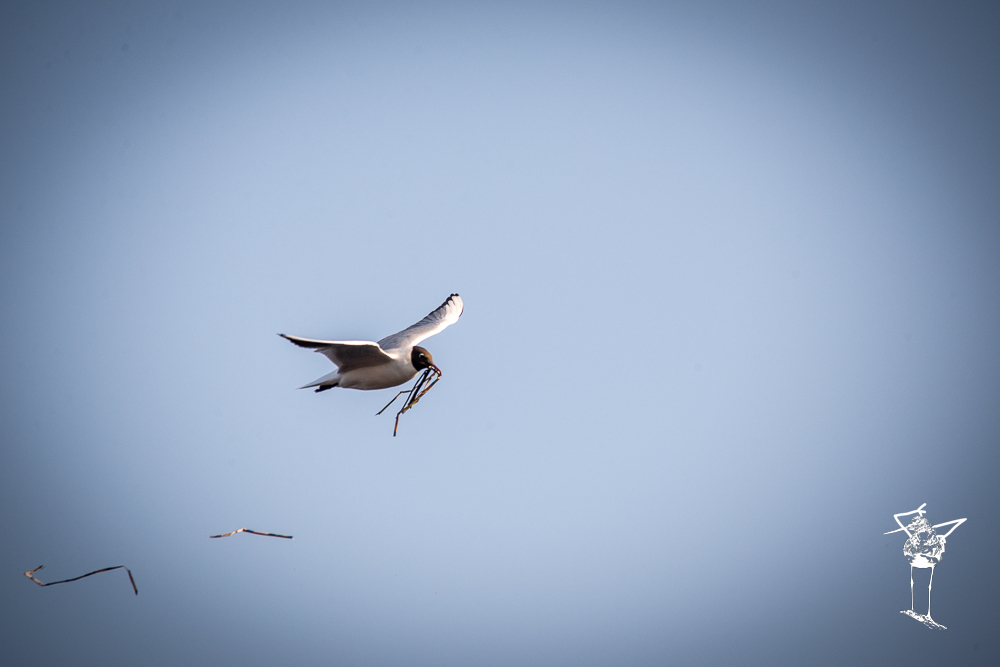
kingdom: Animalia
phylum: Chordata
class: Aves
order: Charadriiformes
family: Laridae
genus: Chroicocephalus
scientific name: Chroicocephalus ridibundus
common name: Black-headed gull
